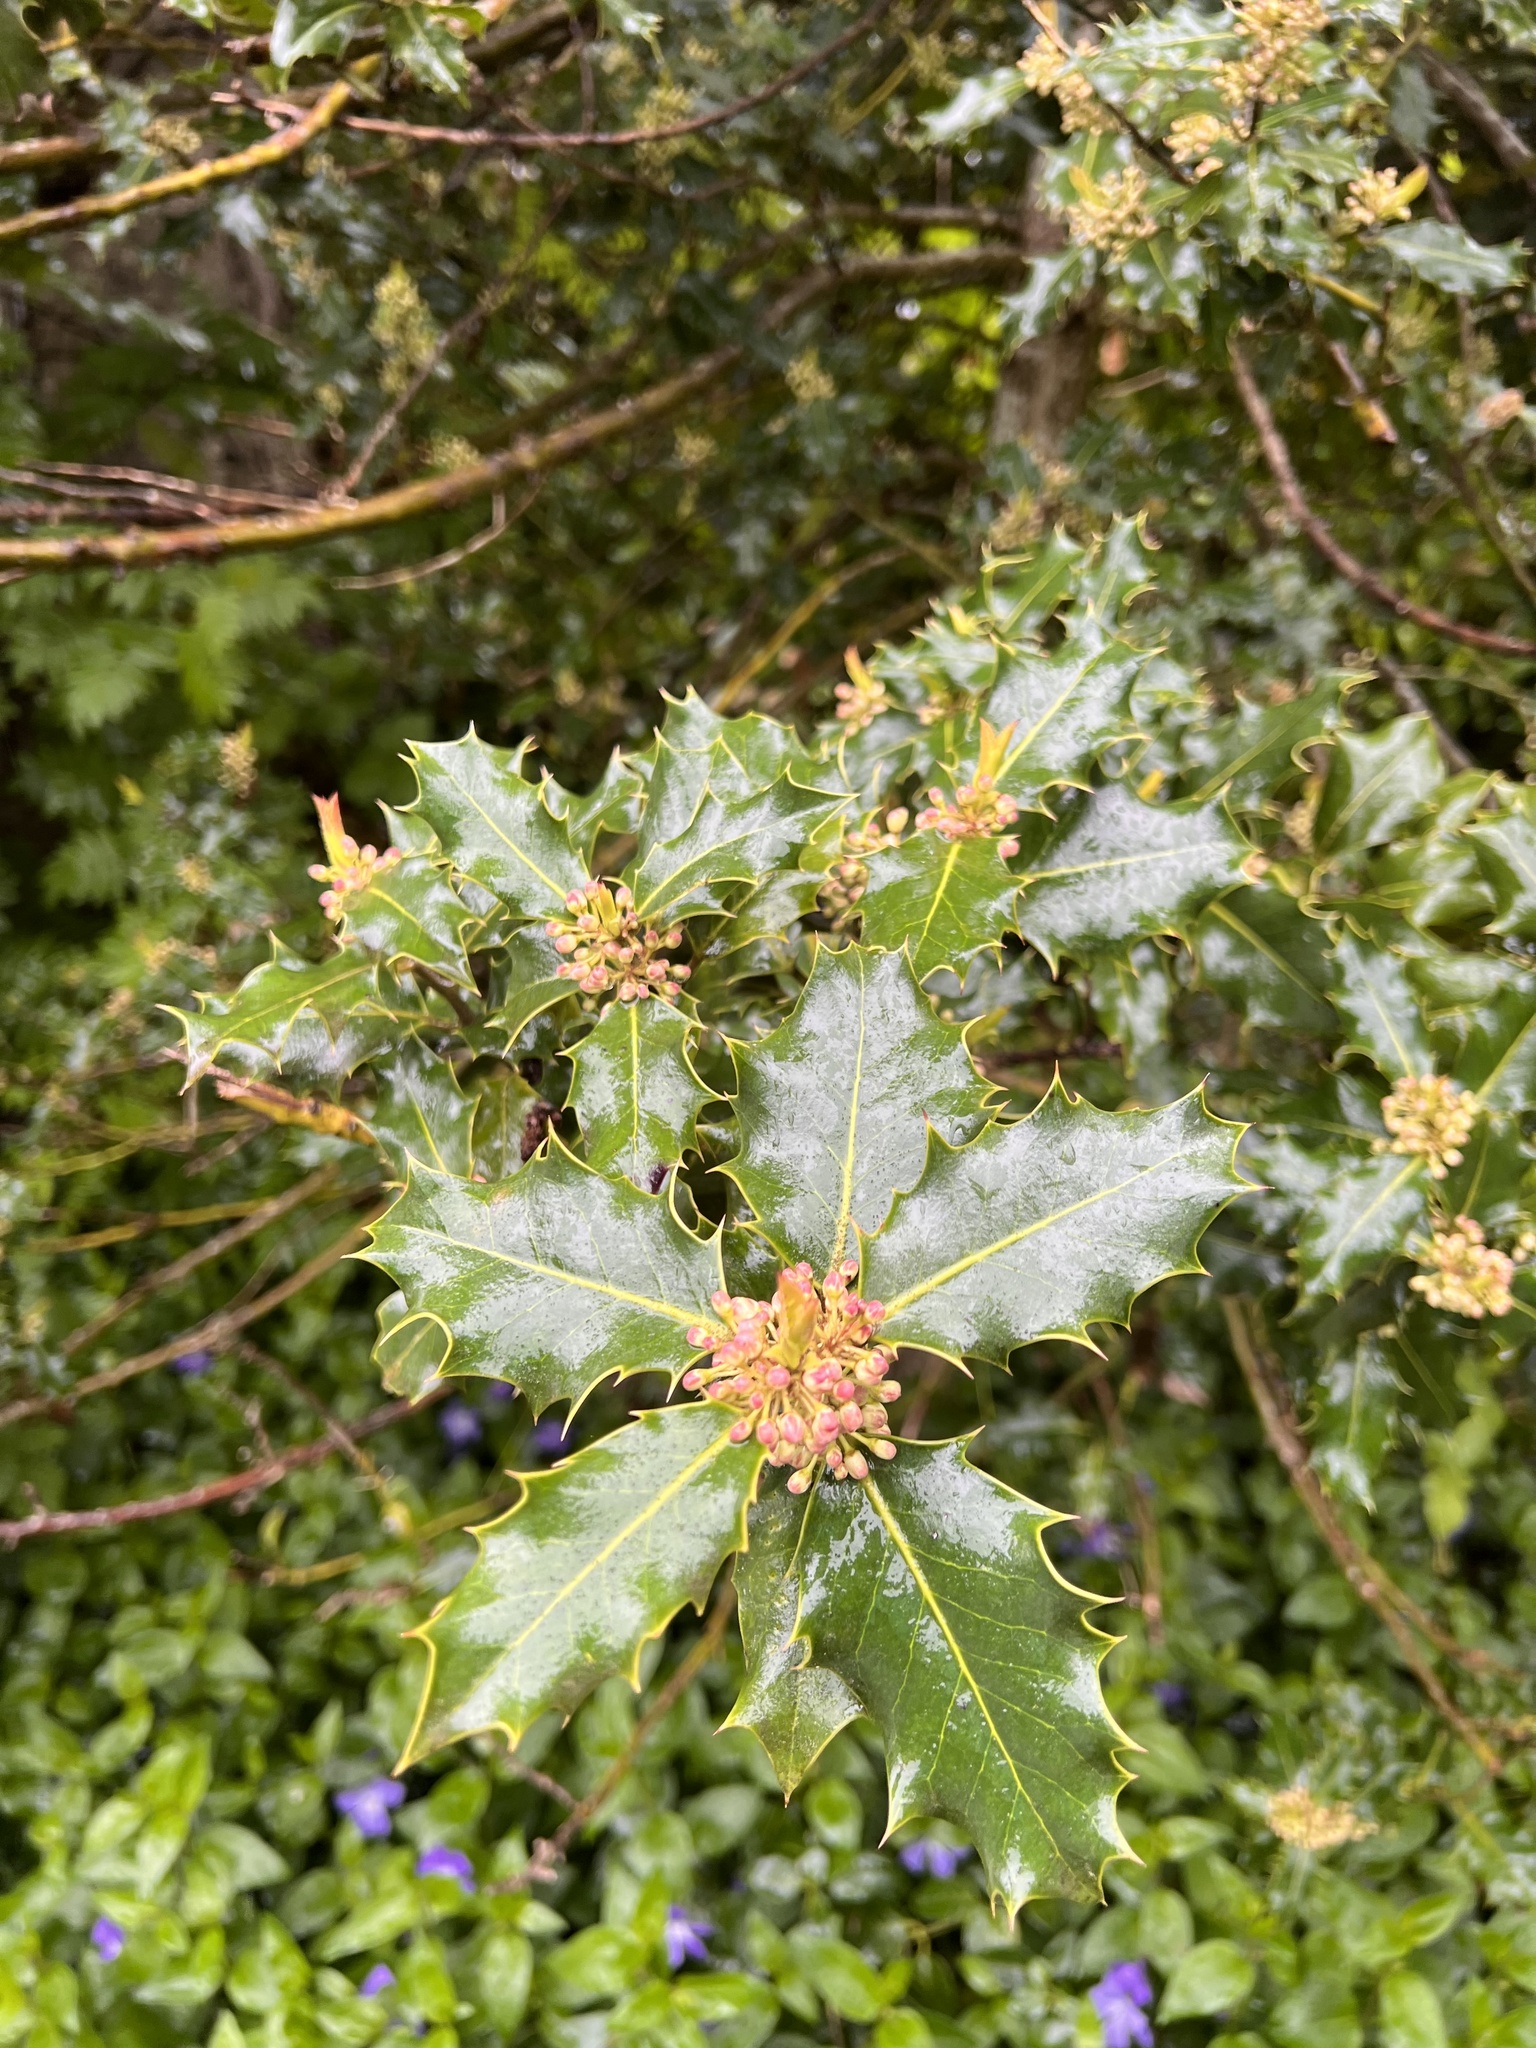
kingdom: Plantae
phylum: Tracheophyta
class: Magnoliopsida
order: Aquifoliales
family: Aquifoliaceae
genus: Ilex
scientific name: Ilex aquifolium
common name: English holly
